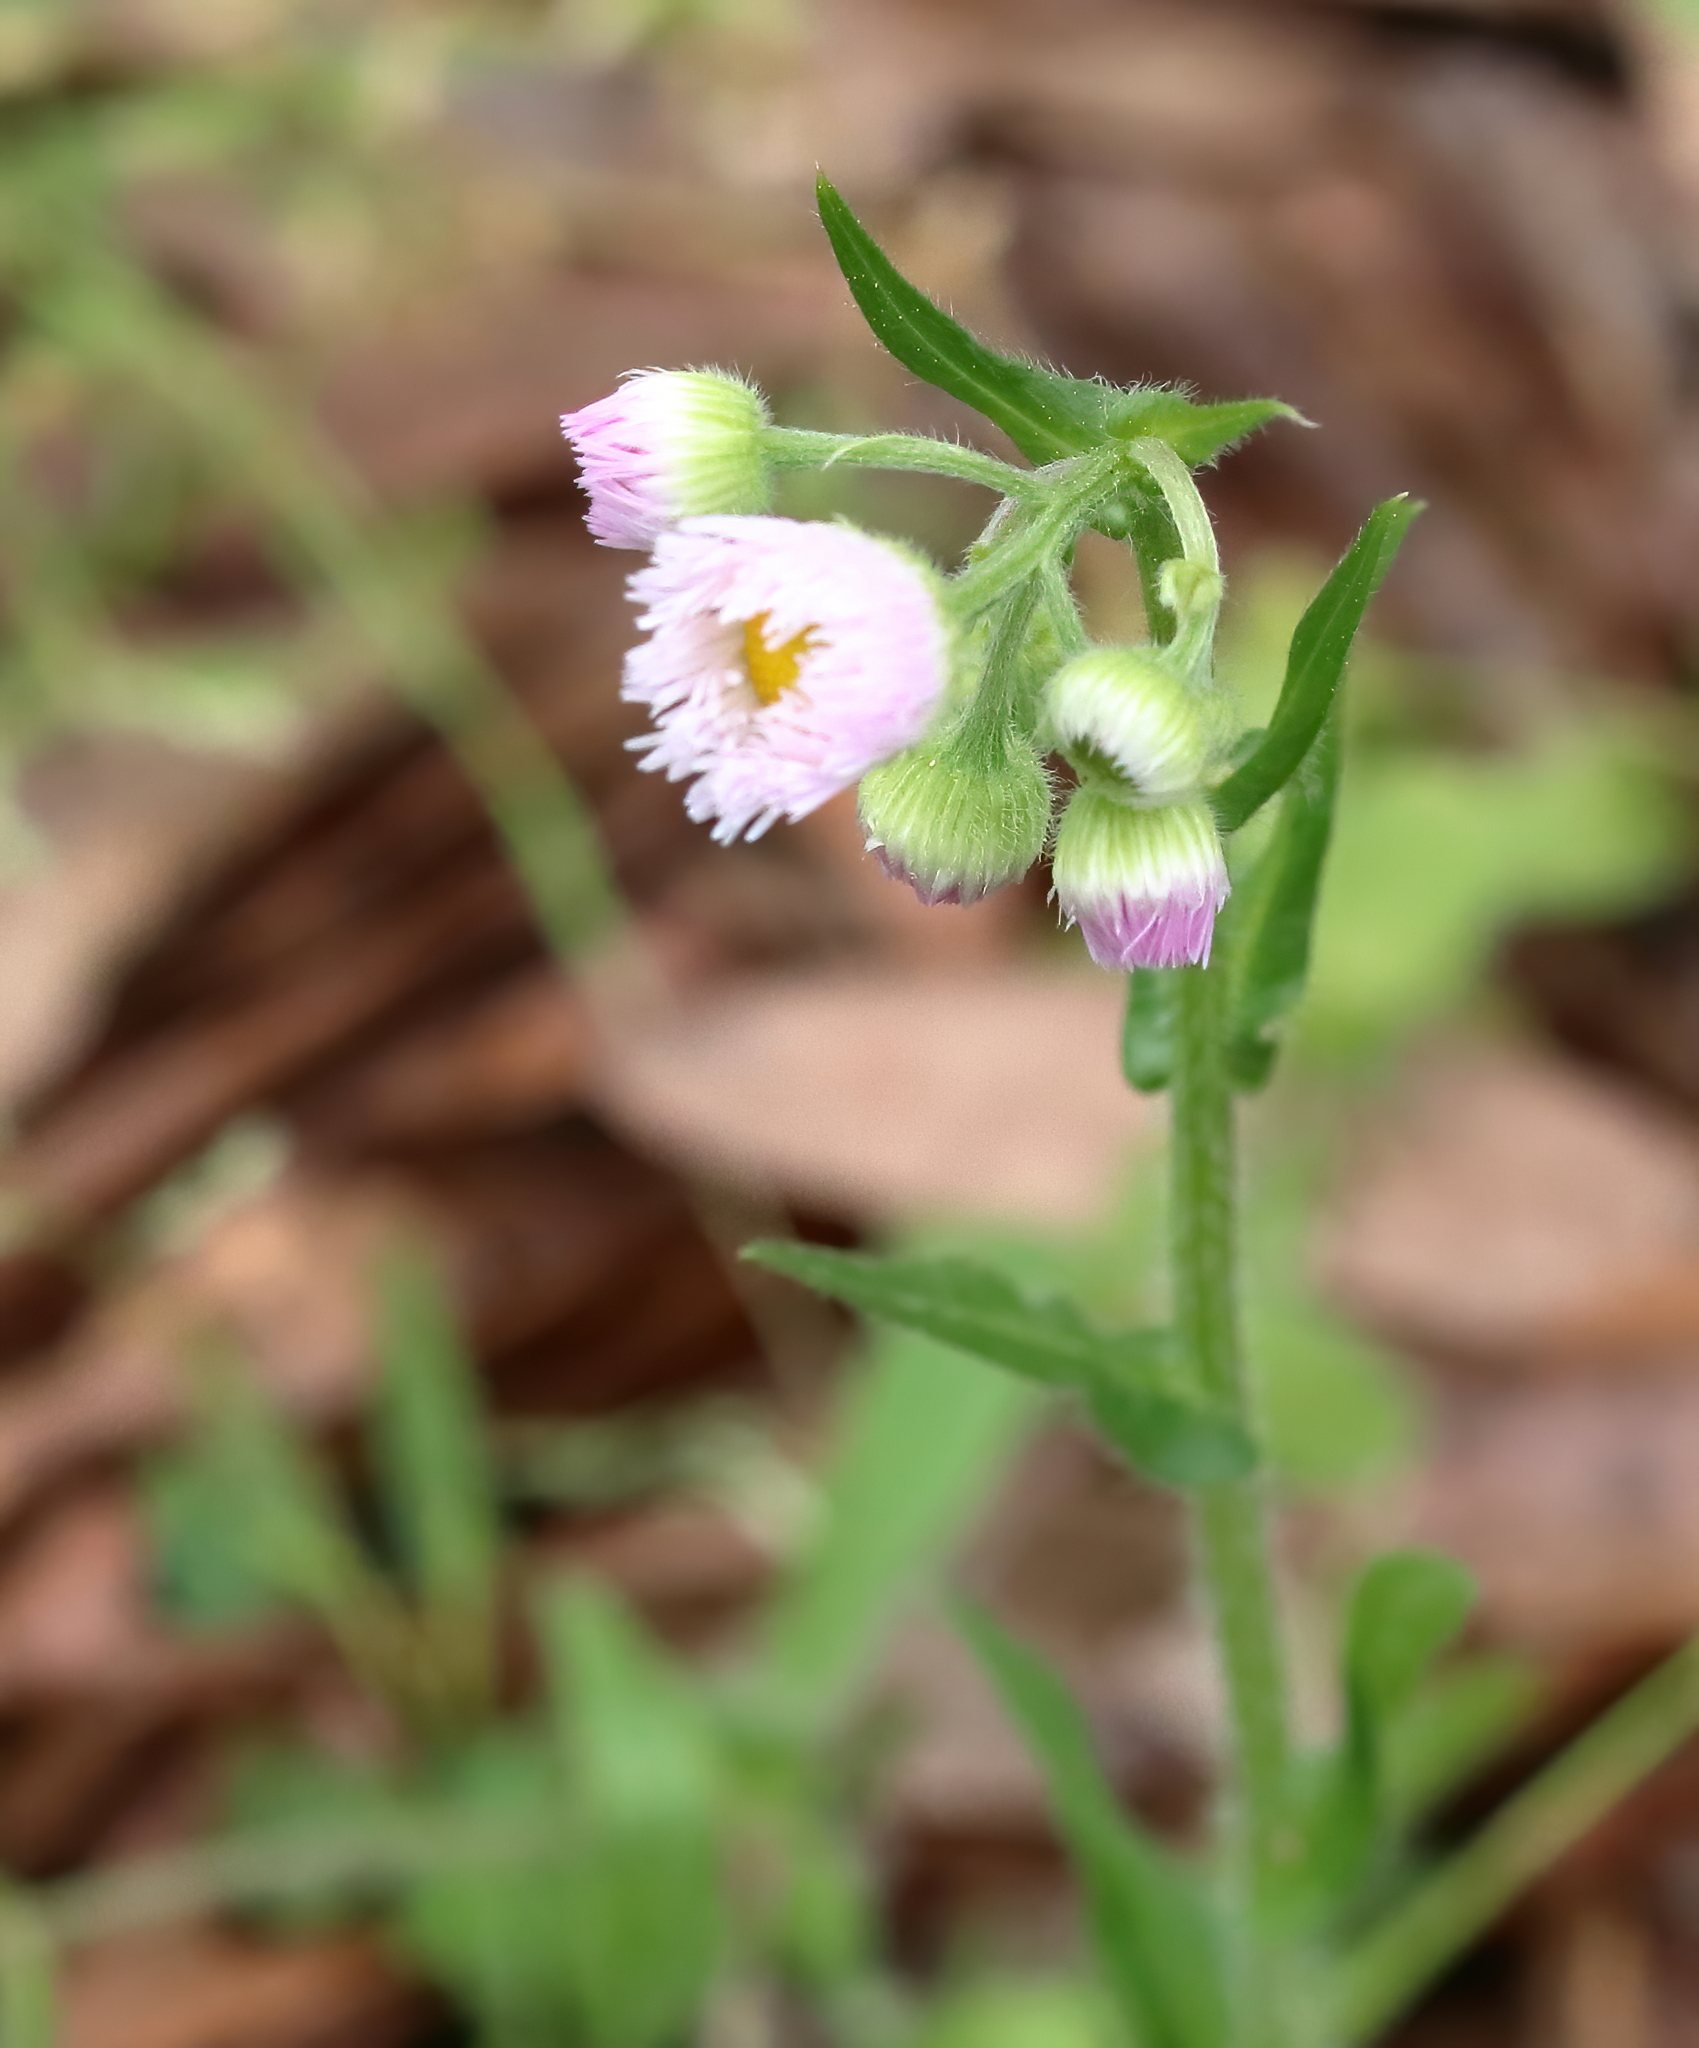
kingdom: Plantae
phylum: Tracheophyta
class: Magnoliopsida
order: Asterales
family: Asteraceae
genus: Erigeron
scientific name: Erigeron philadelphicus
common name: Robin's-plantain
